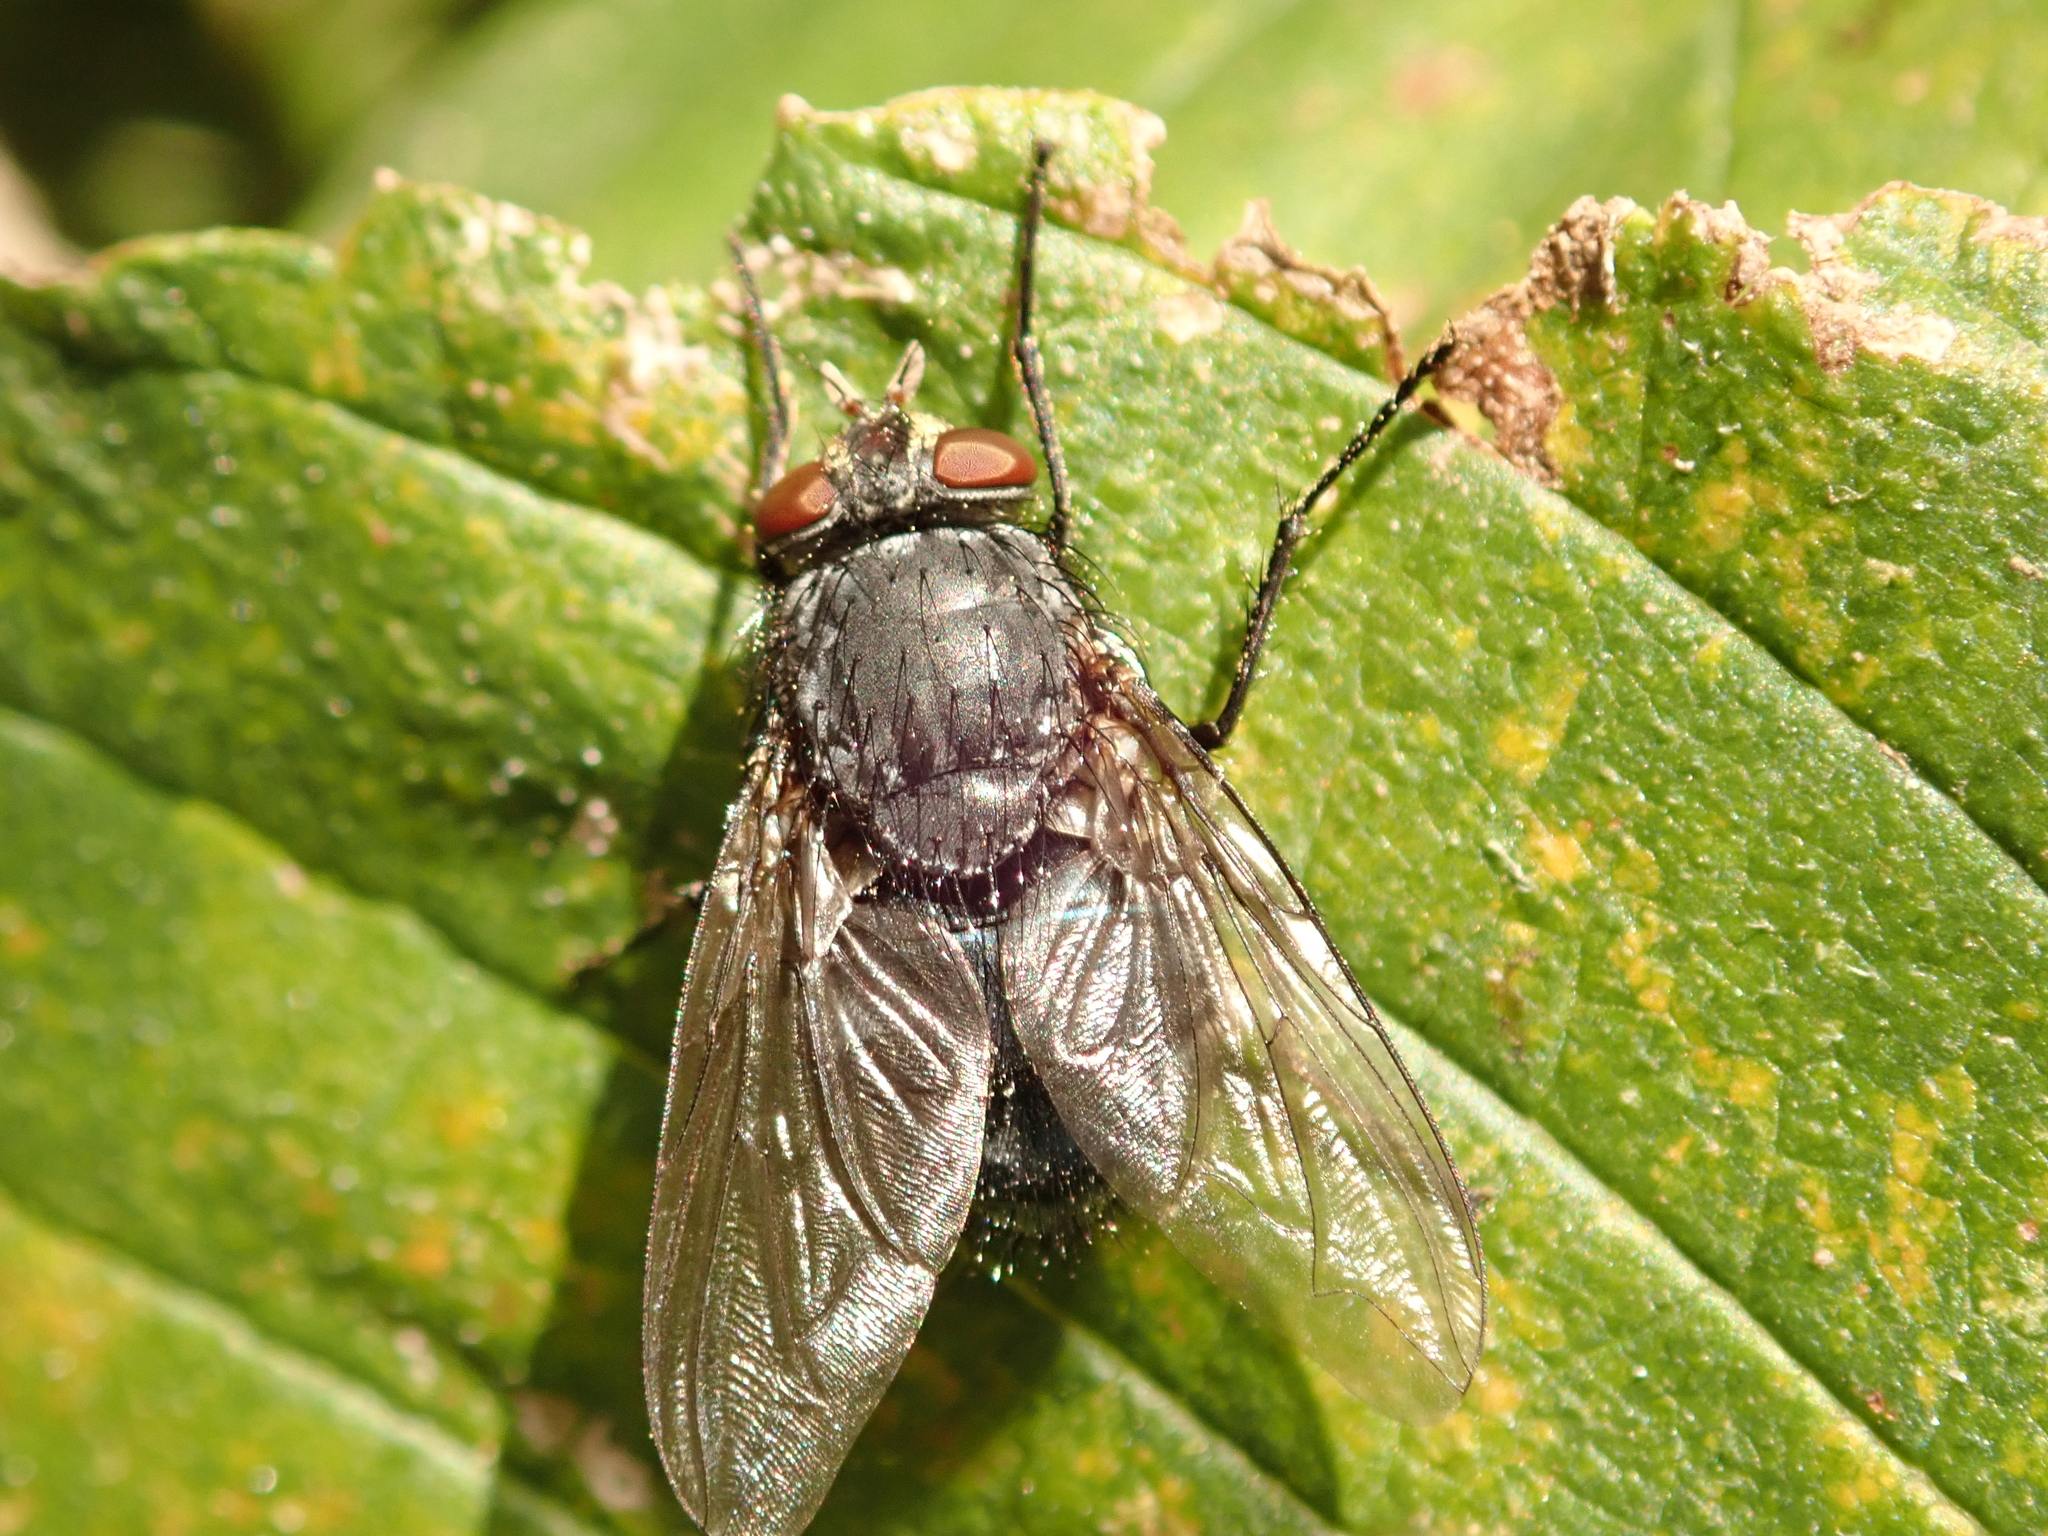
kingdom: Animalia
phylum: Arthropoda
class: Insecta
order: Diptera
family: Calliphoridae
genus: Calliphora
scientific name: Calliphora vicina
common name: Common blow flie
